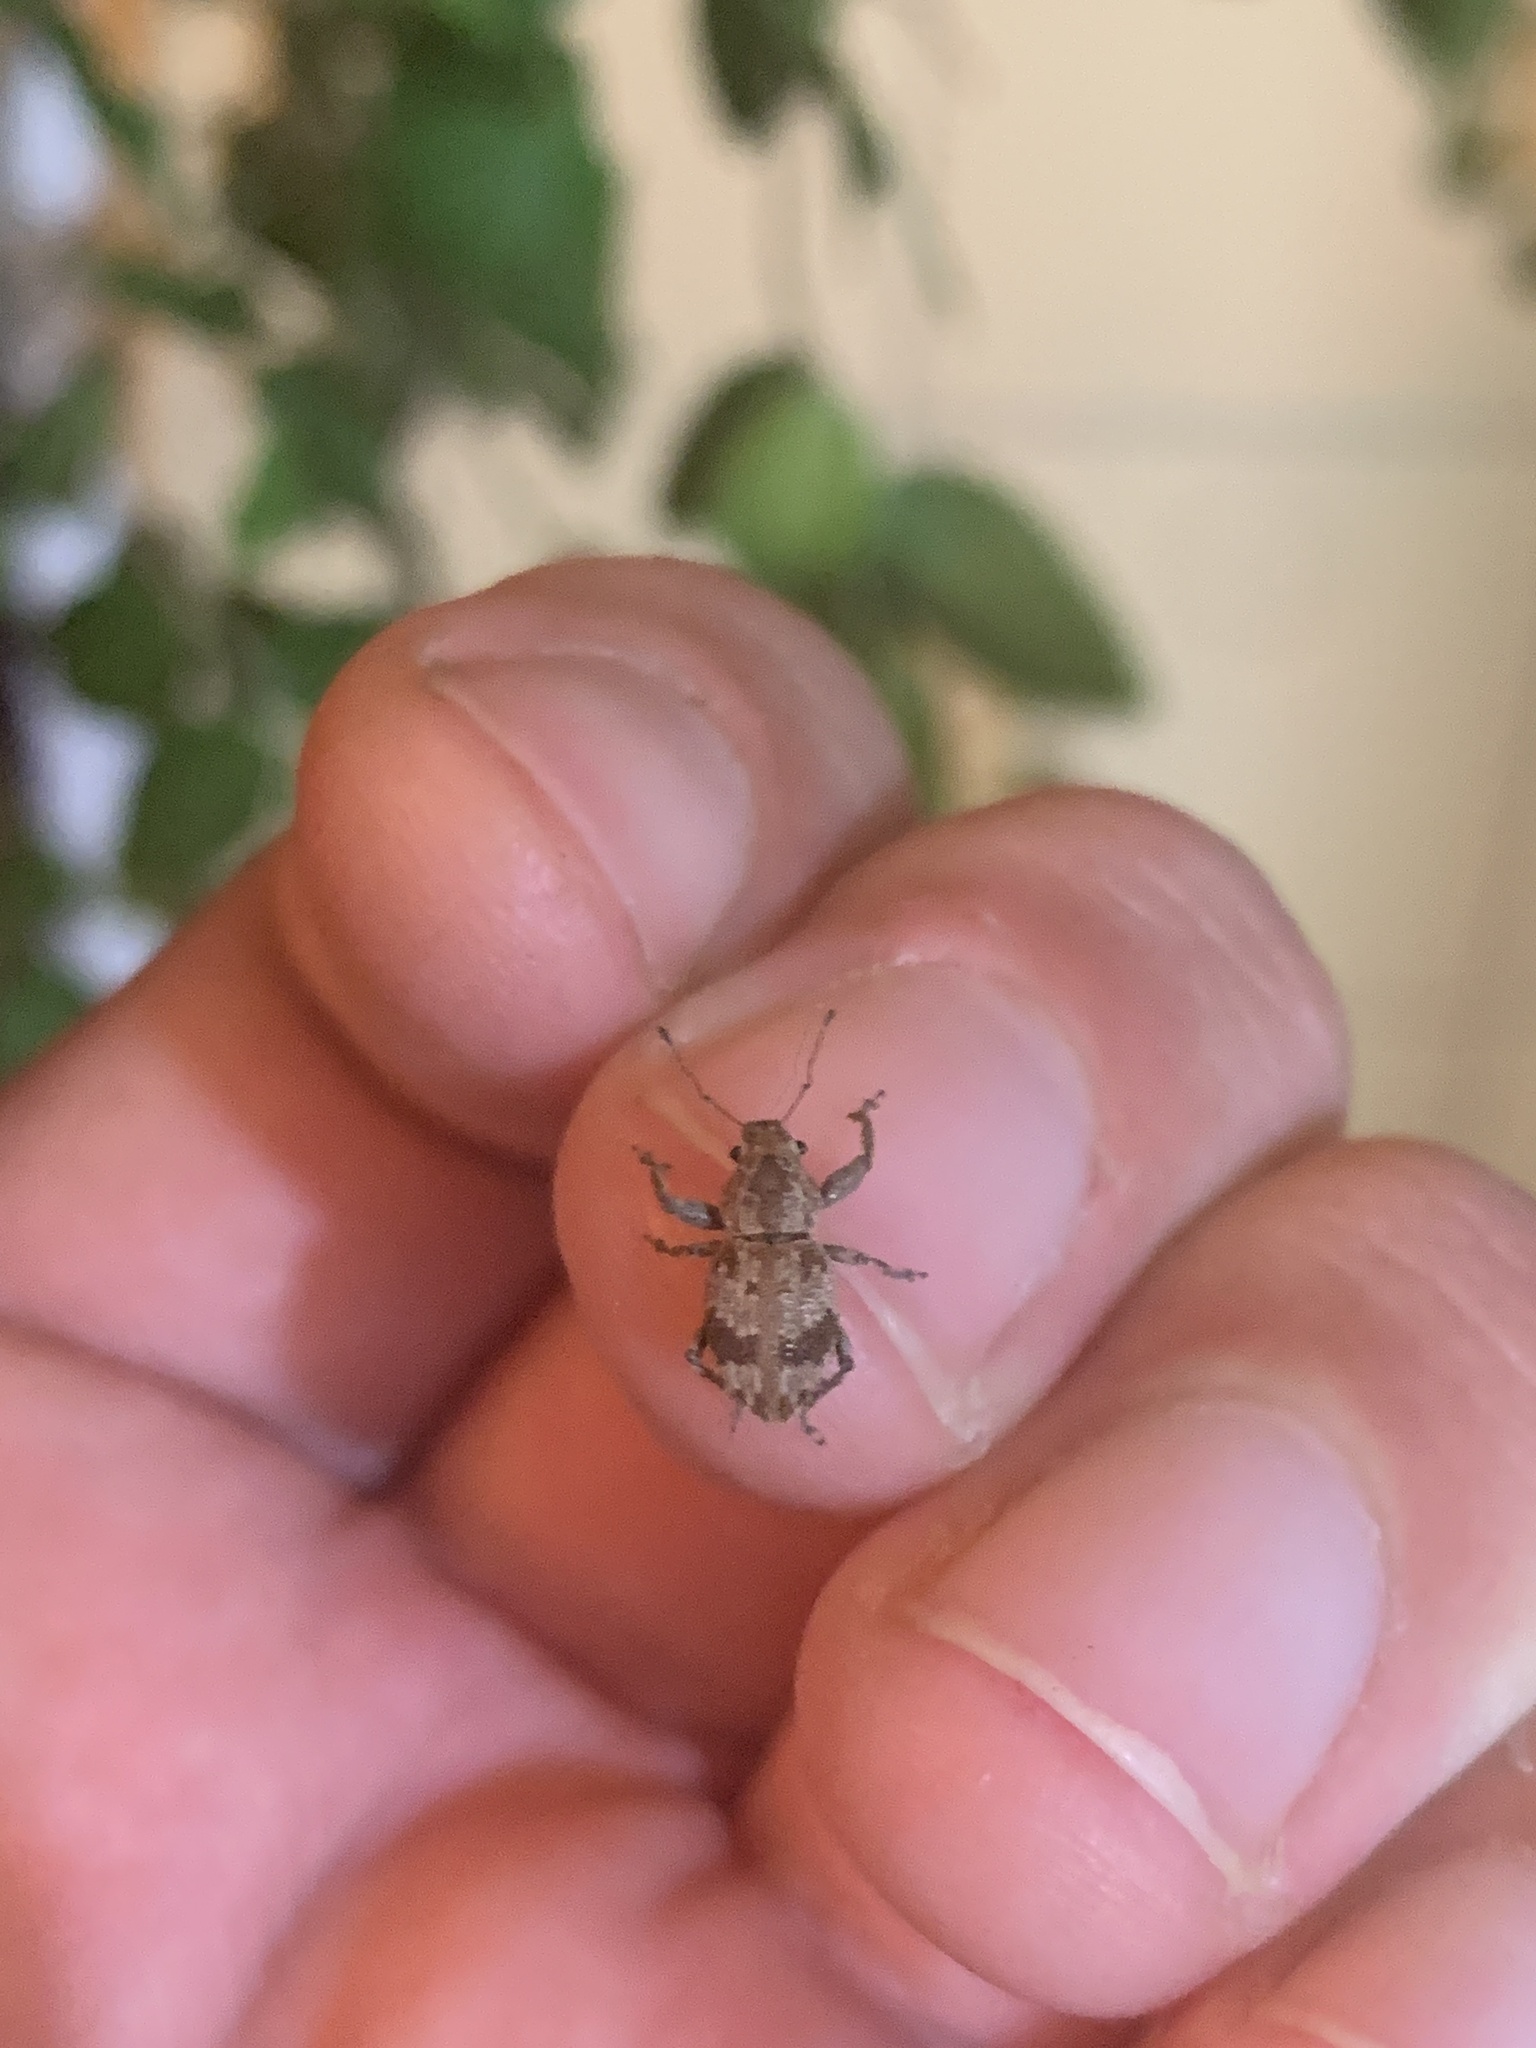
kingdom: Animalia
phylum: Arthropoda
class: Insecta
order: Coleoptera
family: Curculionidae
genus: Pantomorus
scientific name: Pantomorus
